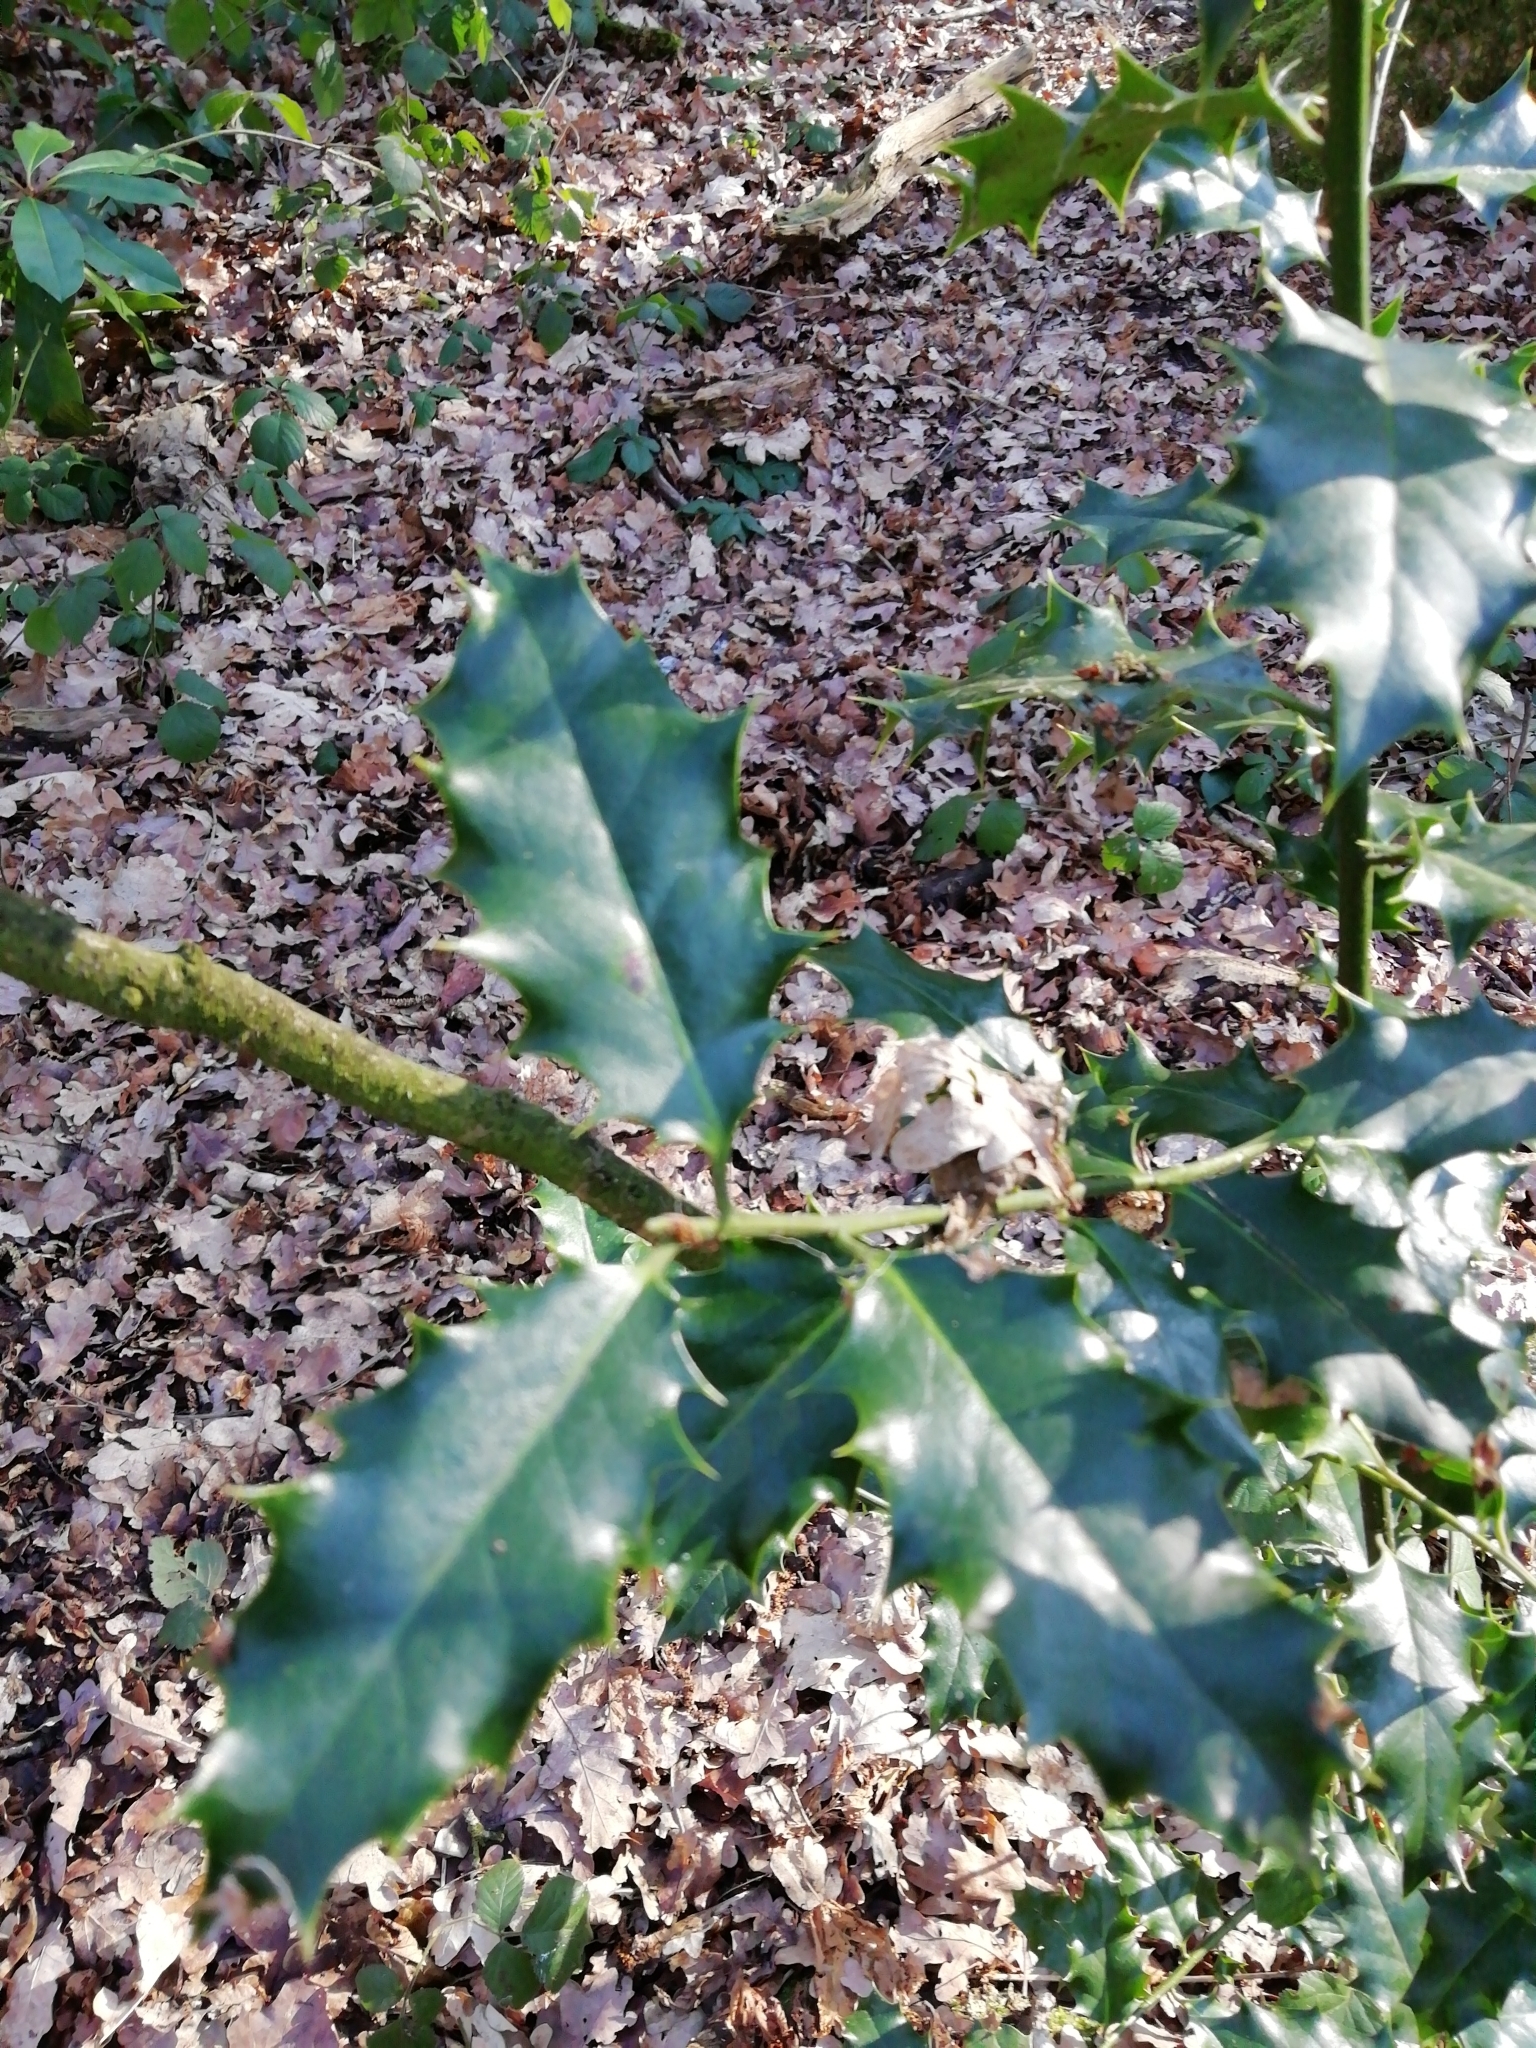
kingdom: Plantae
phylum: Tracheophyta
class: Magnoliopsida
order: Aquifoliales
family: Aquifoliaceae
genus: Ilex
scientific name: Ilex aquifolium
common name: English holly
